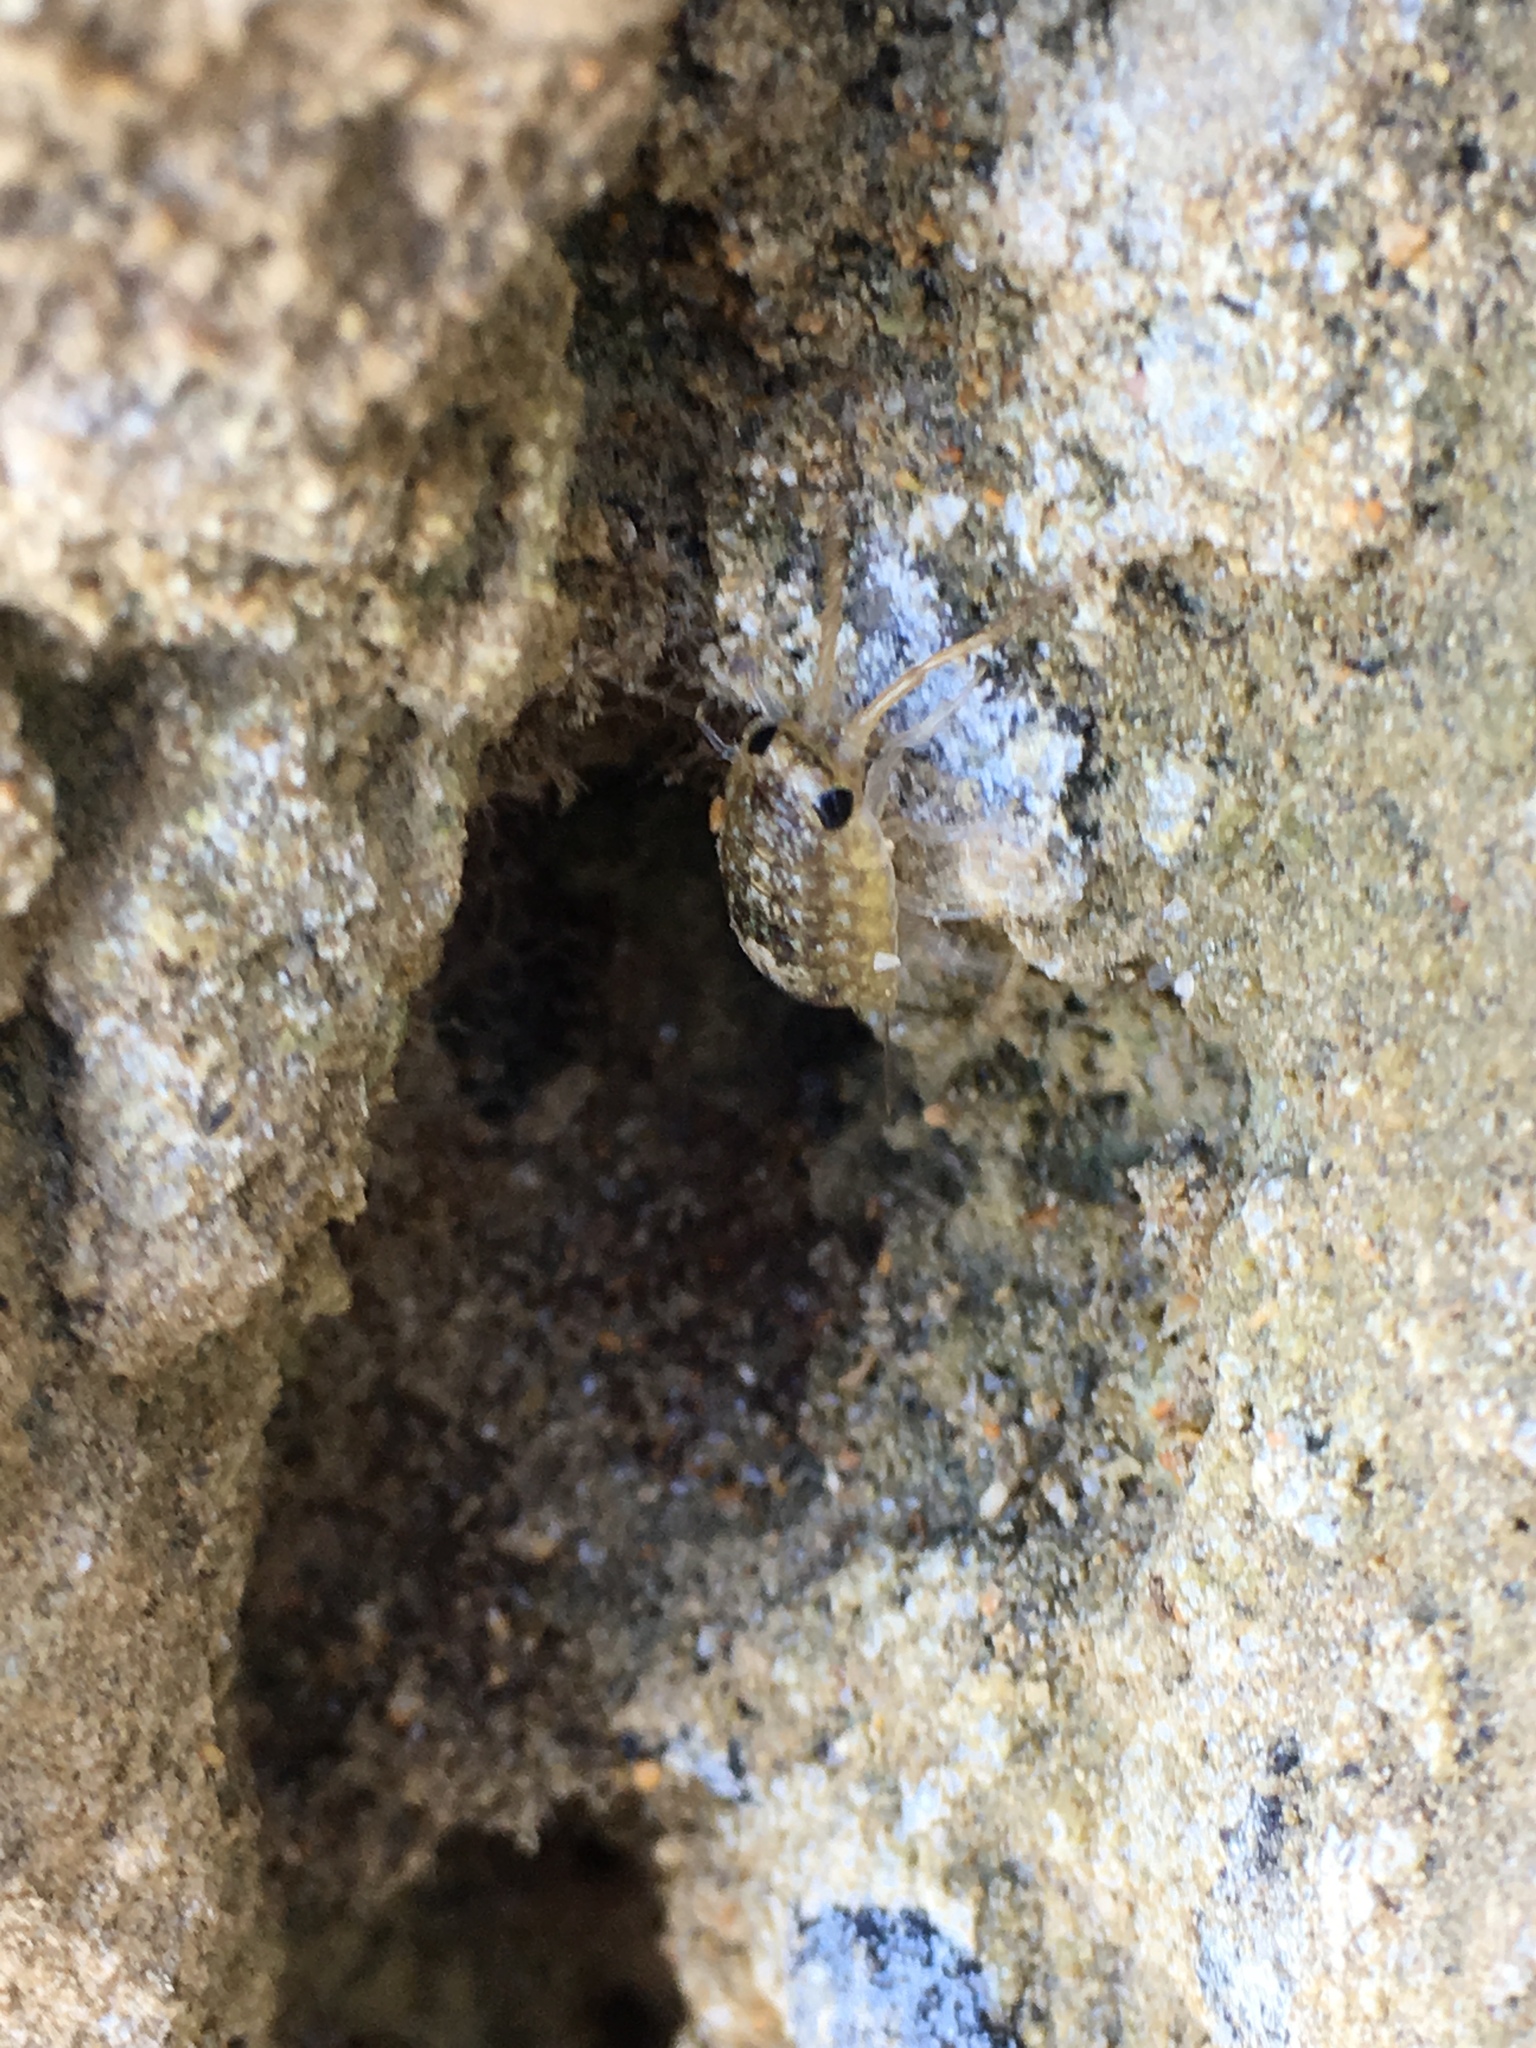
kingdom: Animalia
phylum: Arthropoda
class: Malacostraca
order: Isopoda
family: Ligiidae
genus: Ligia
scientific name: Ligia australiensis
